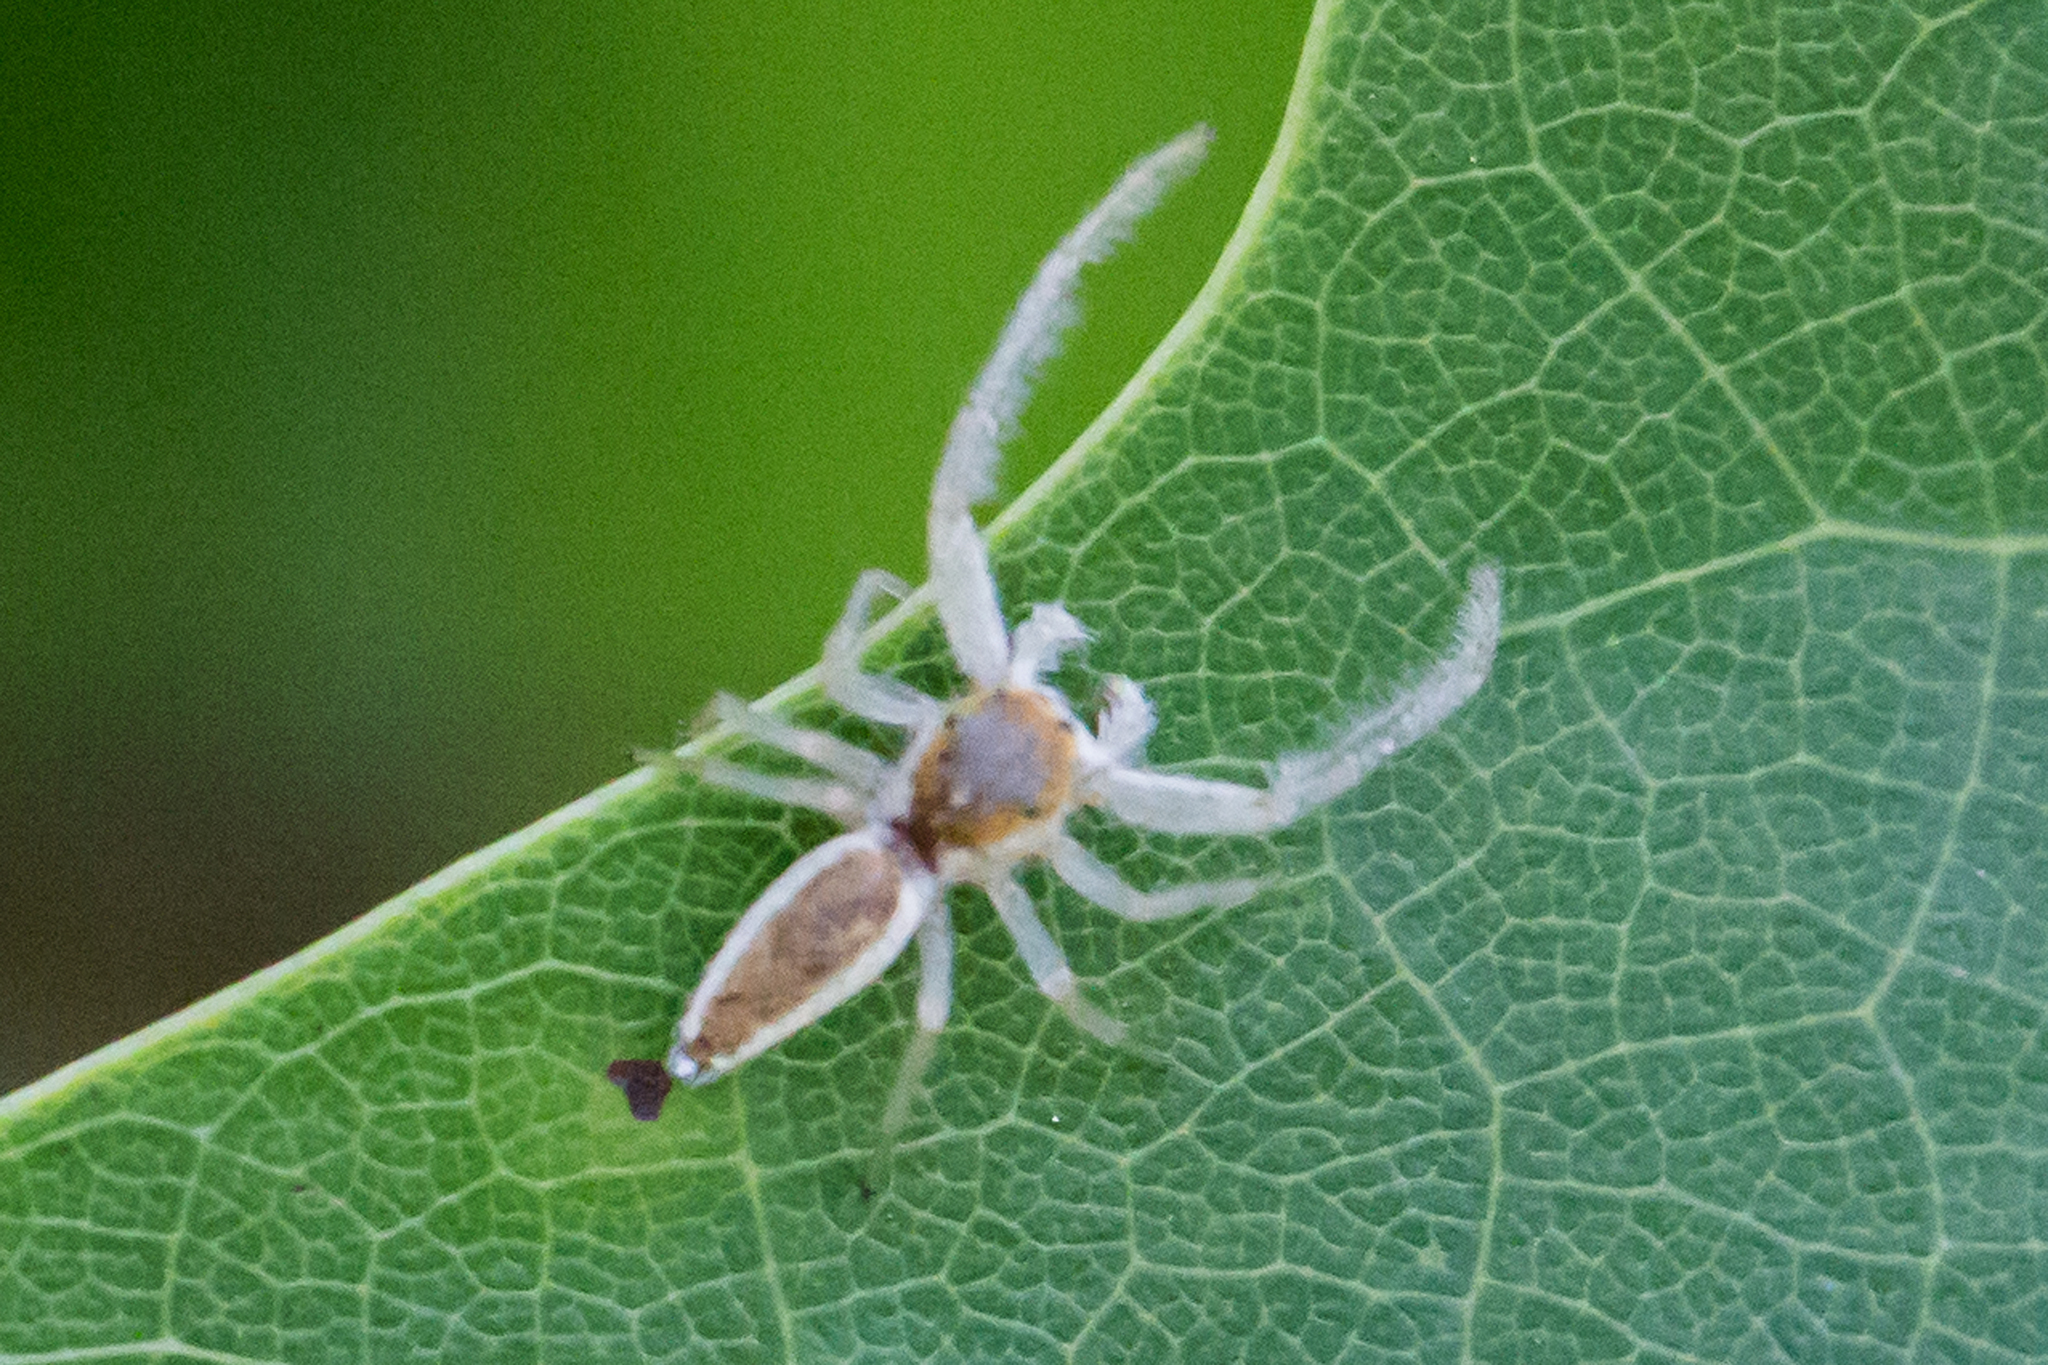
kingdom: Animalia
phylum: Arthropoda
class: Arachnida
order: Araneae
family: Salticidae
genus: Hentzia
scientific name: Hentzia mitrata
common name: White-jawed jumping spider
